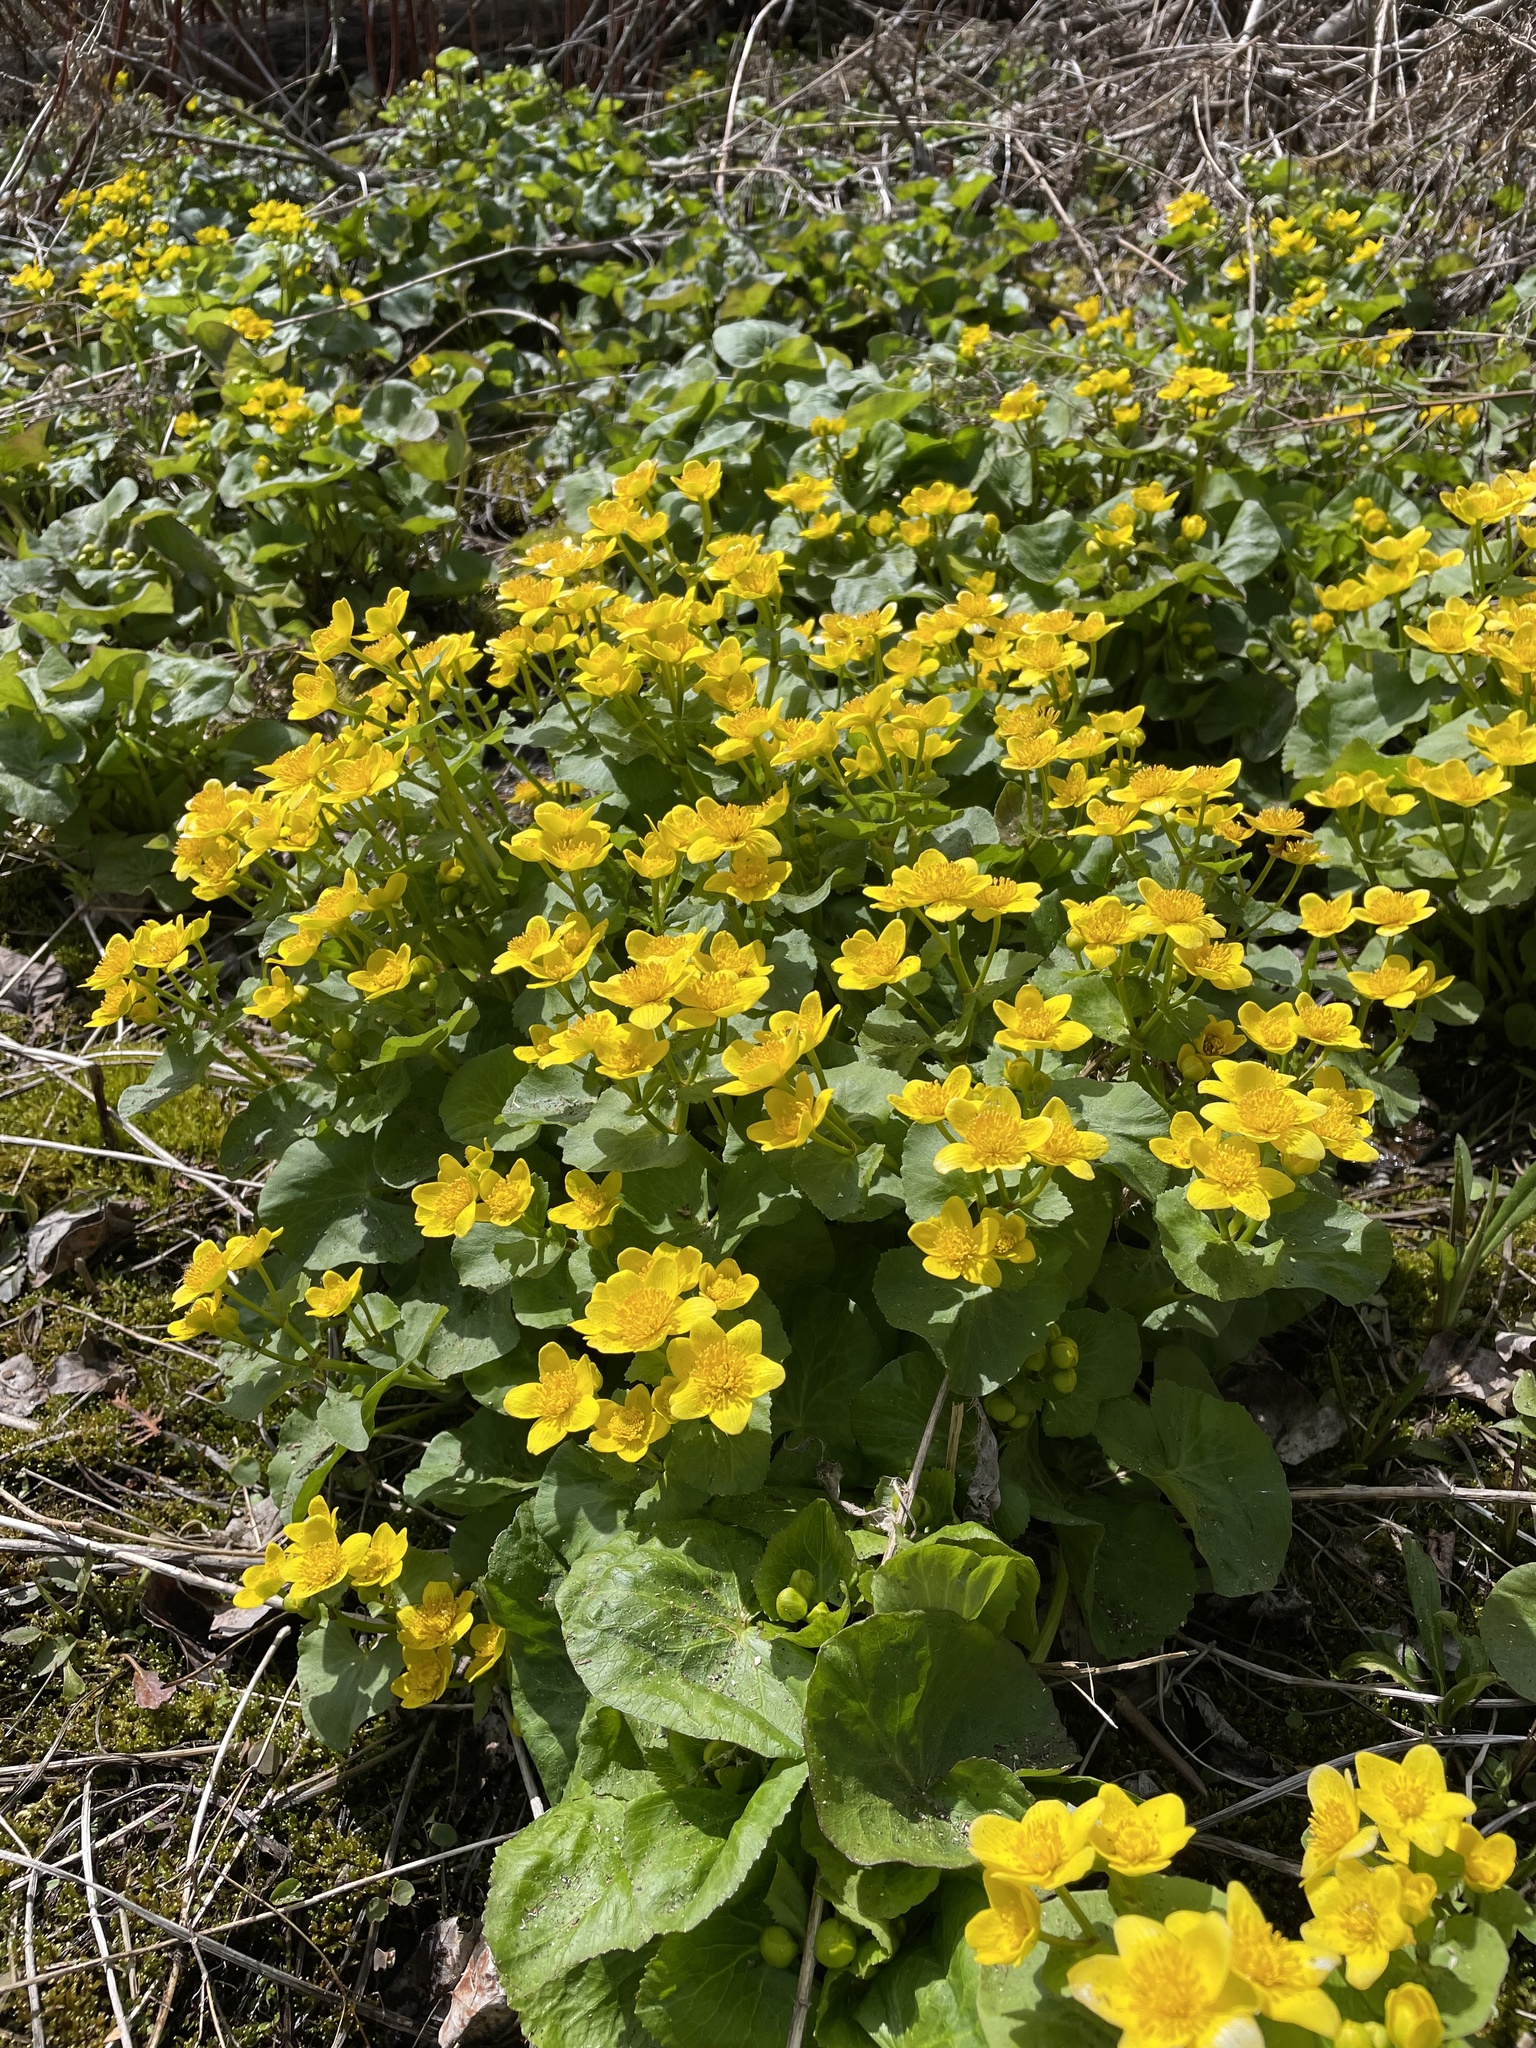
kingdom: Plantae
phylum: Tracheophyta
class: Magnoliopsida
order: Ranunculales
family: Ranunculaceae
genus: Caltha
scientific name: Caltha palustris
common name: Marsh marigold
